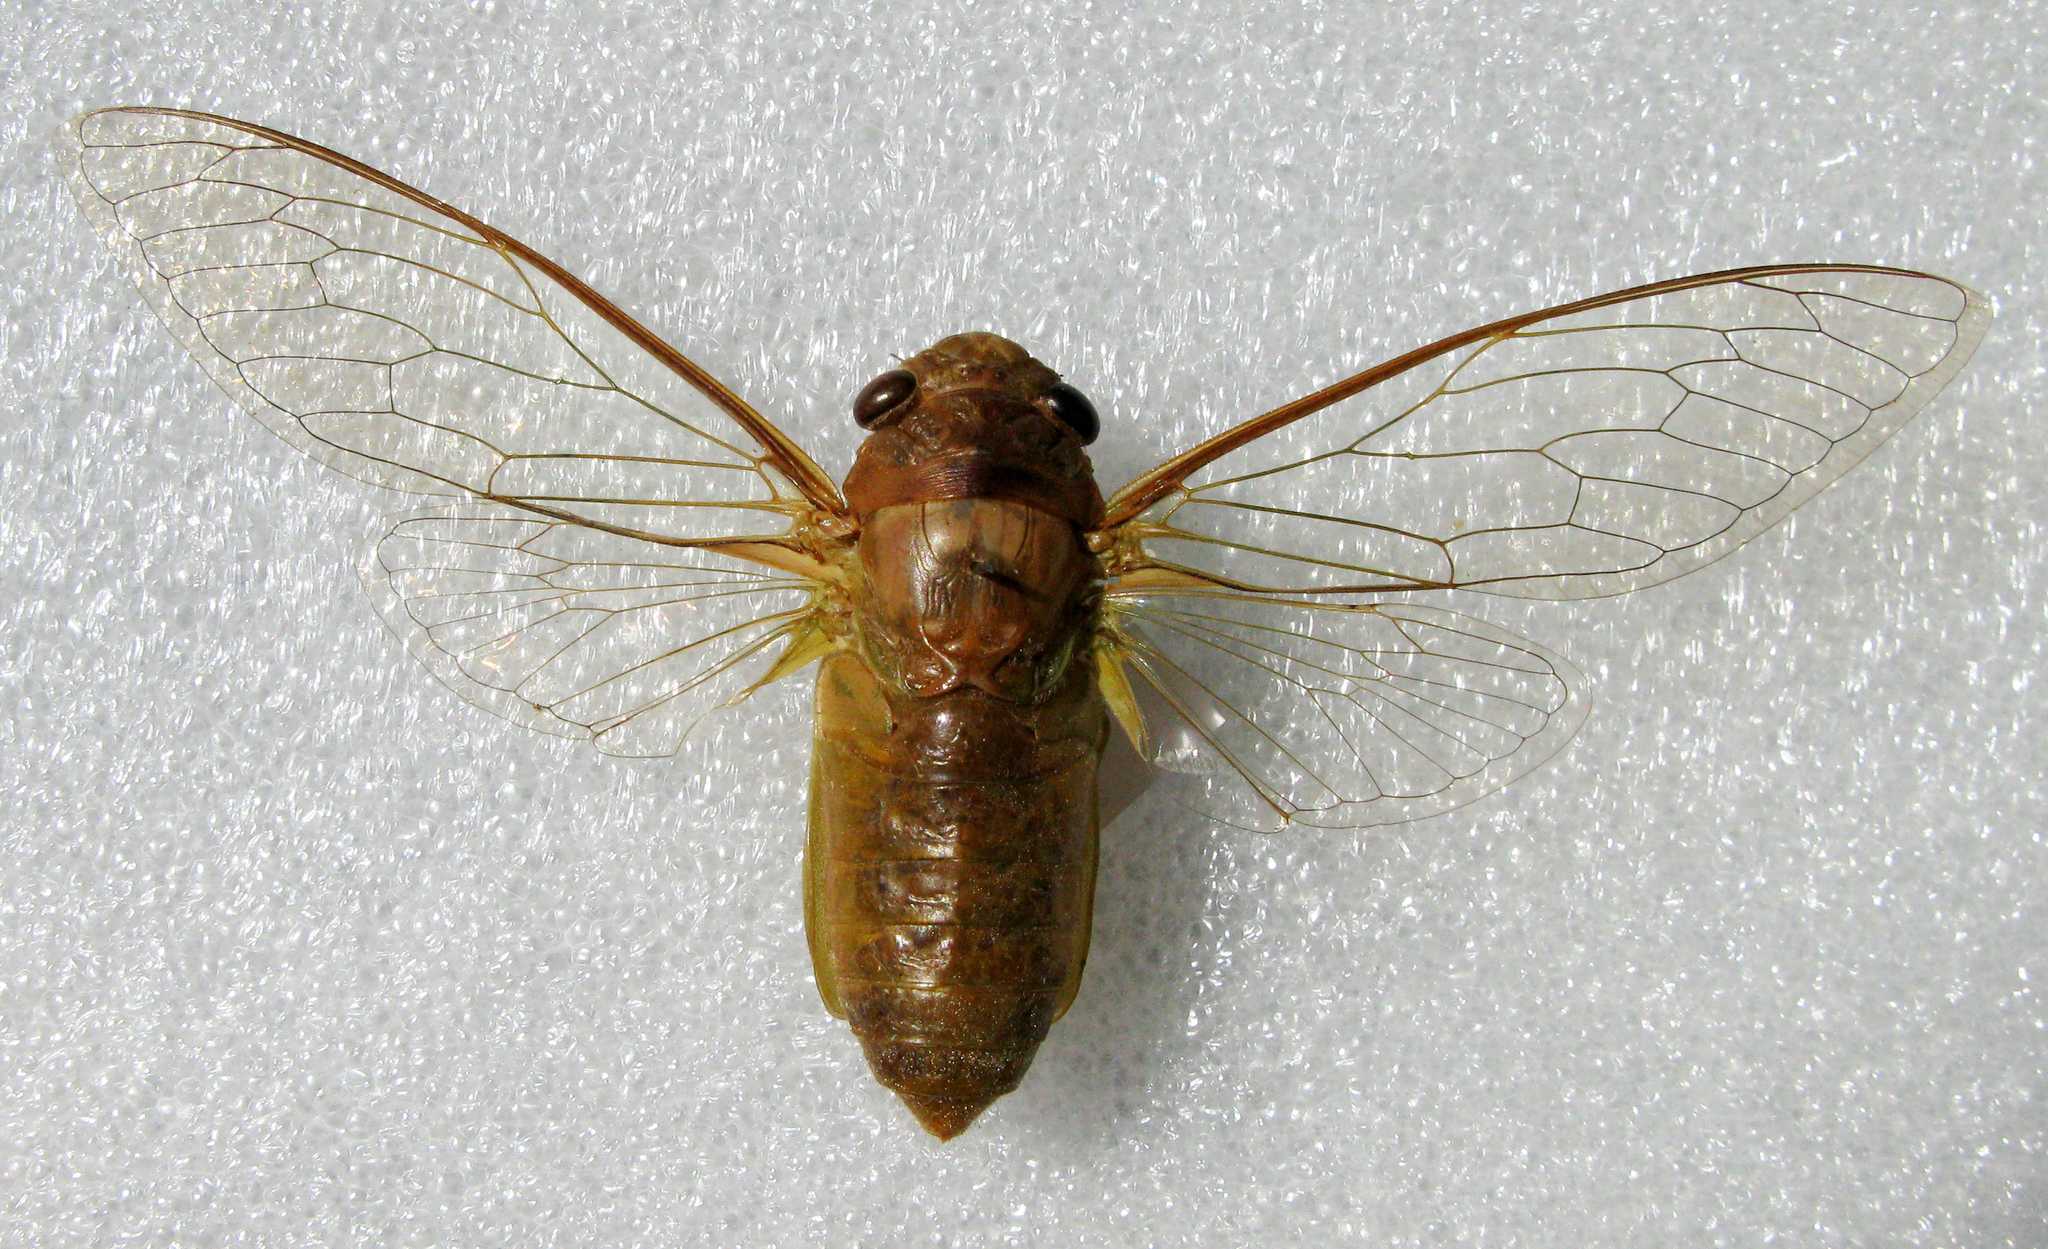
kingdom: Animalia
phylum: Arthropoda
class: Insecta
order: Hemiptera
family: Cicadidae
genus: Dundubia
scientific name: Dundubia vaginata
